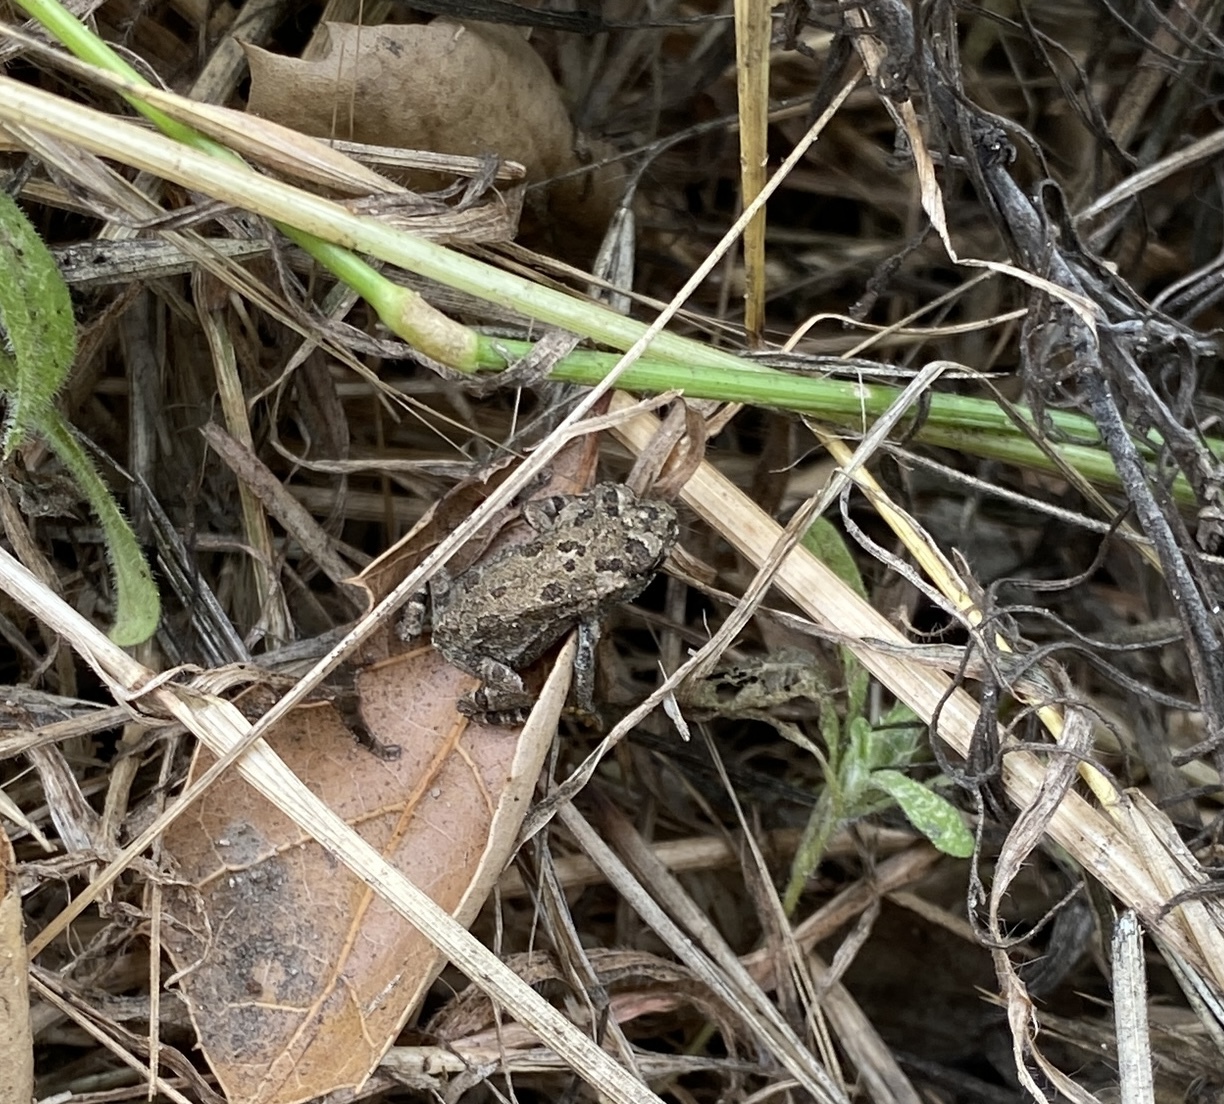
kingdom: Animalia
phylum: Chordata
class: Amphibia
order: Anura
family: Bufonidae
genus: Anaxyrus
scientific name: Anaxyrus boreas
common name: Western toad
